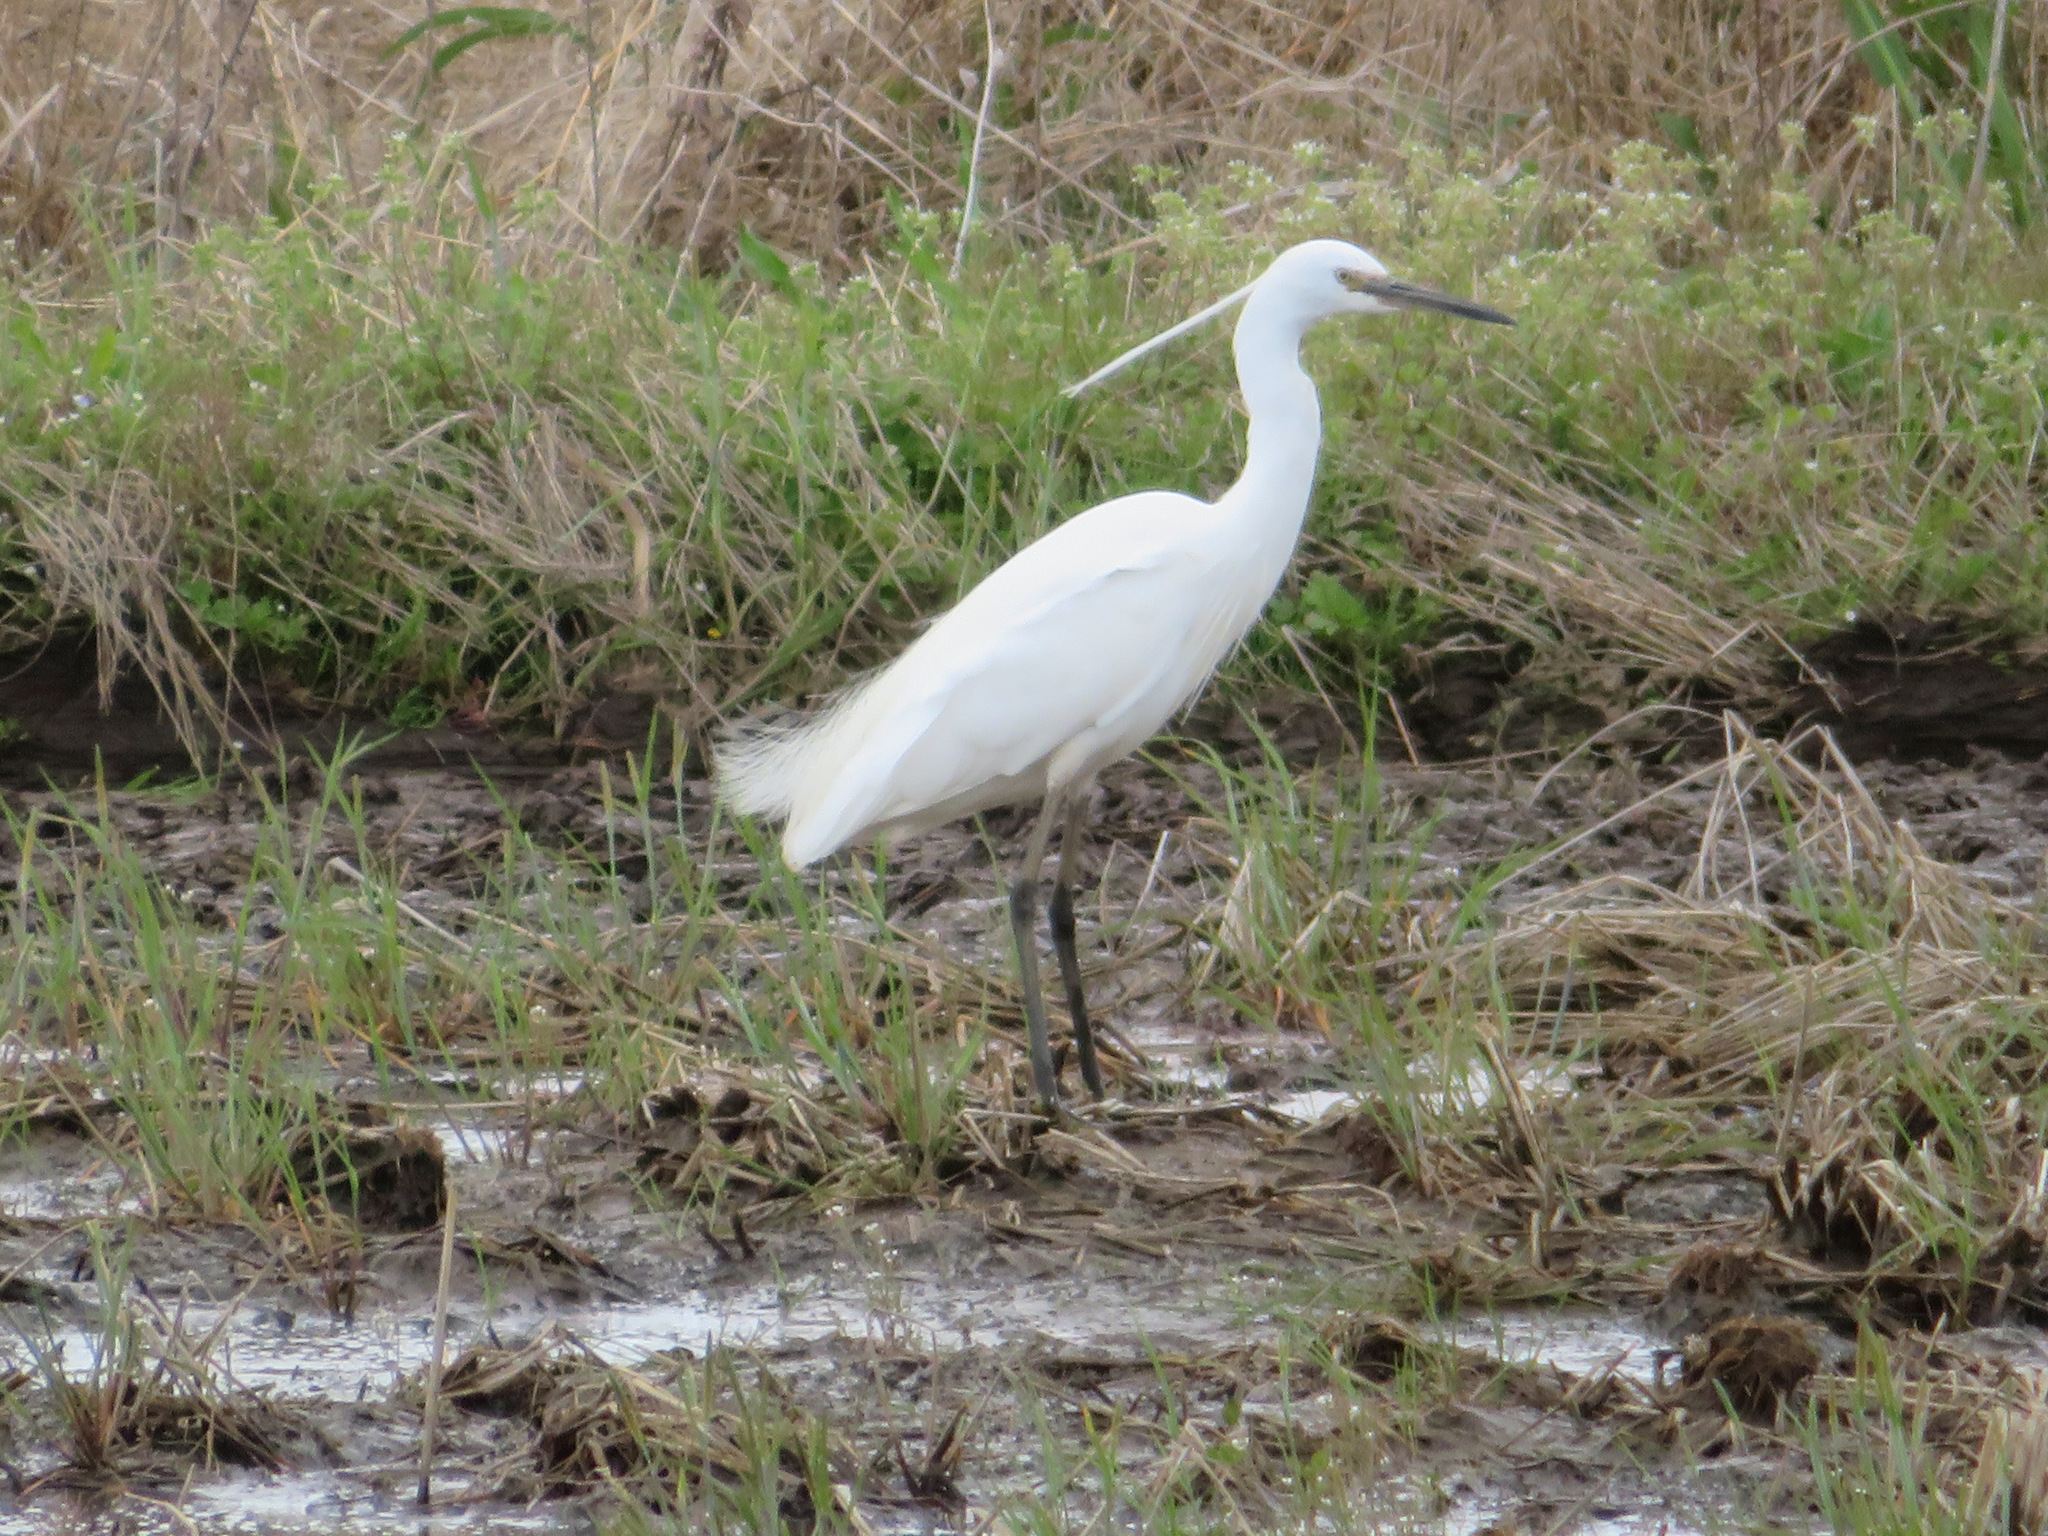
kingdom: Animalia
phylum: Chordata
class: Aves
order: Pelecaniformes
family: Ardeidae
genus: Egretta
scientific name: Egretta garzetta
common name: Little egret
